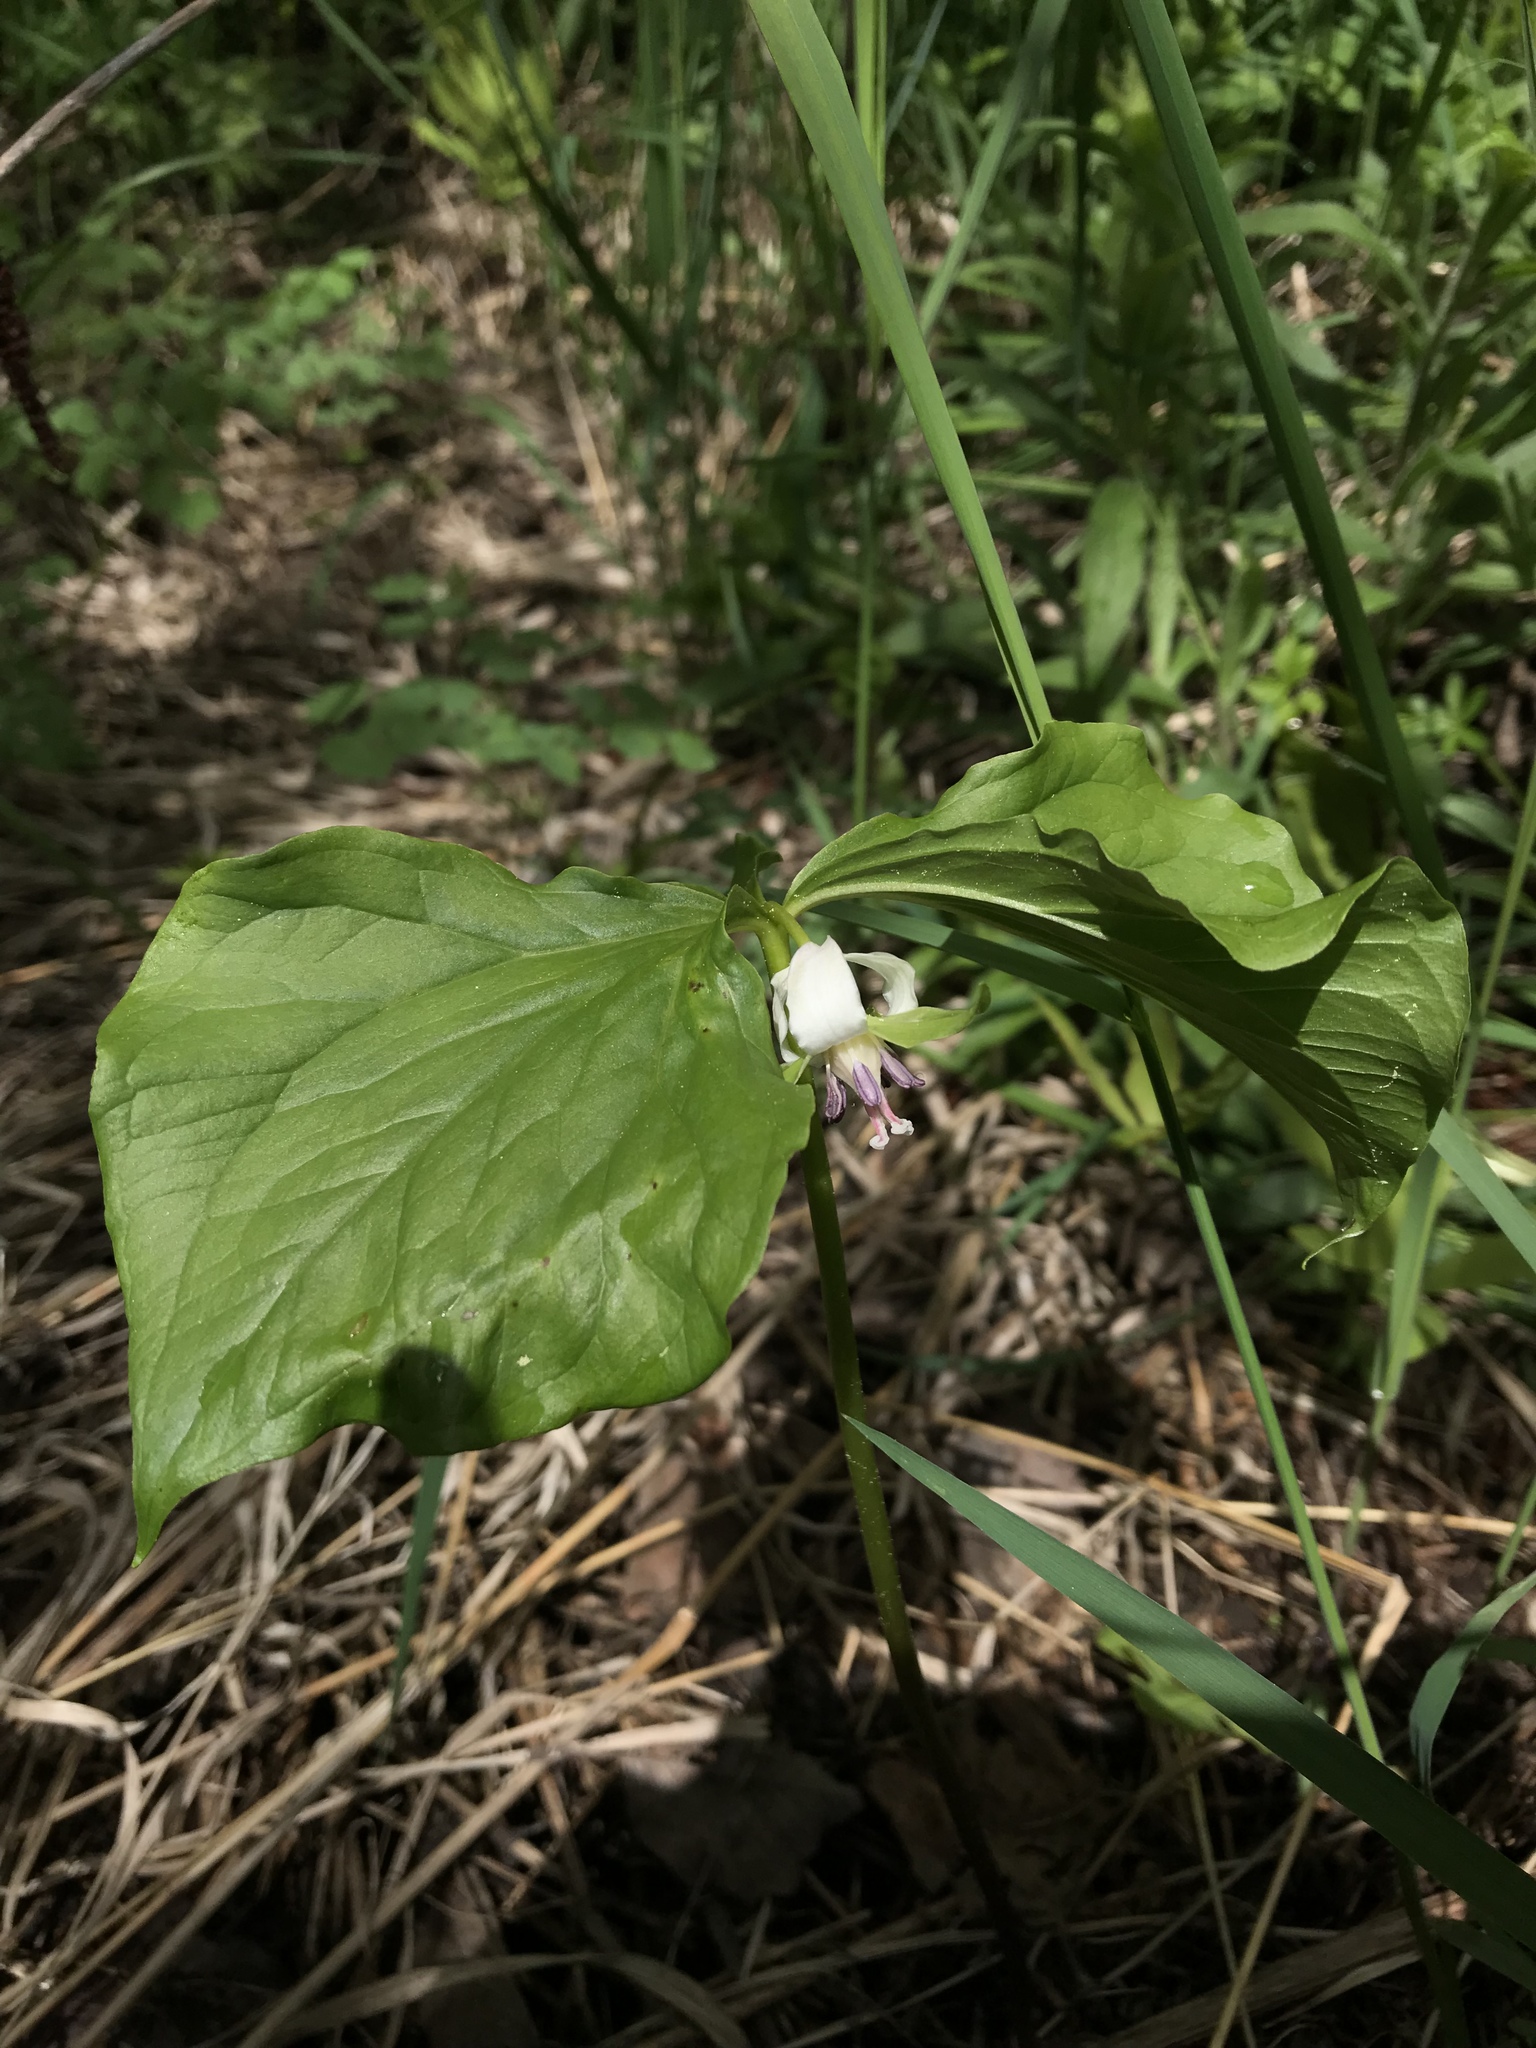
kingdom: Plantae
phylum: Tracheophyta
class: Liliopsida
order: Liliales
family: Melanthiaceae
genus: Trillium
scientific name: Trillium cernuum
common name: Nodding trillium
